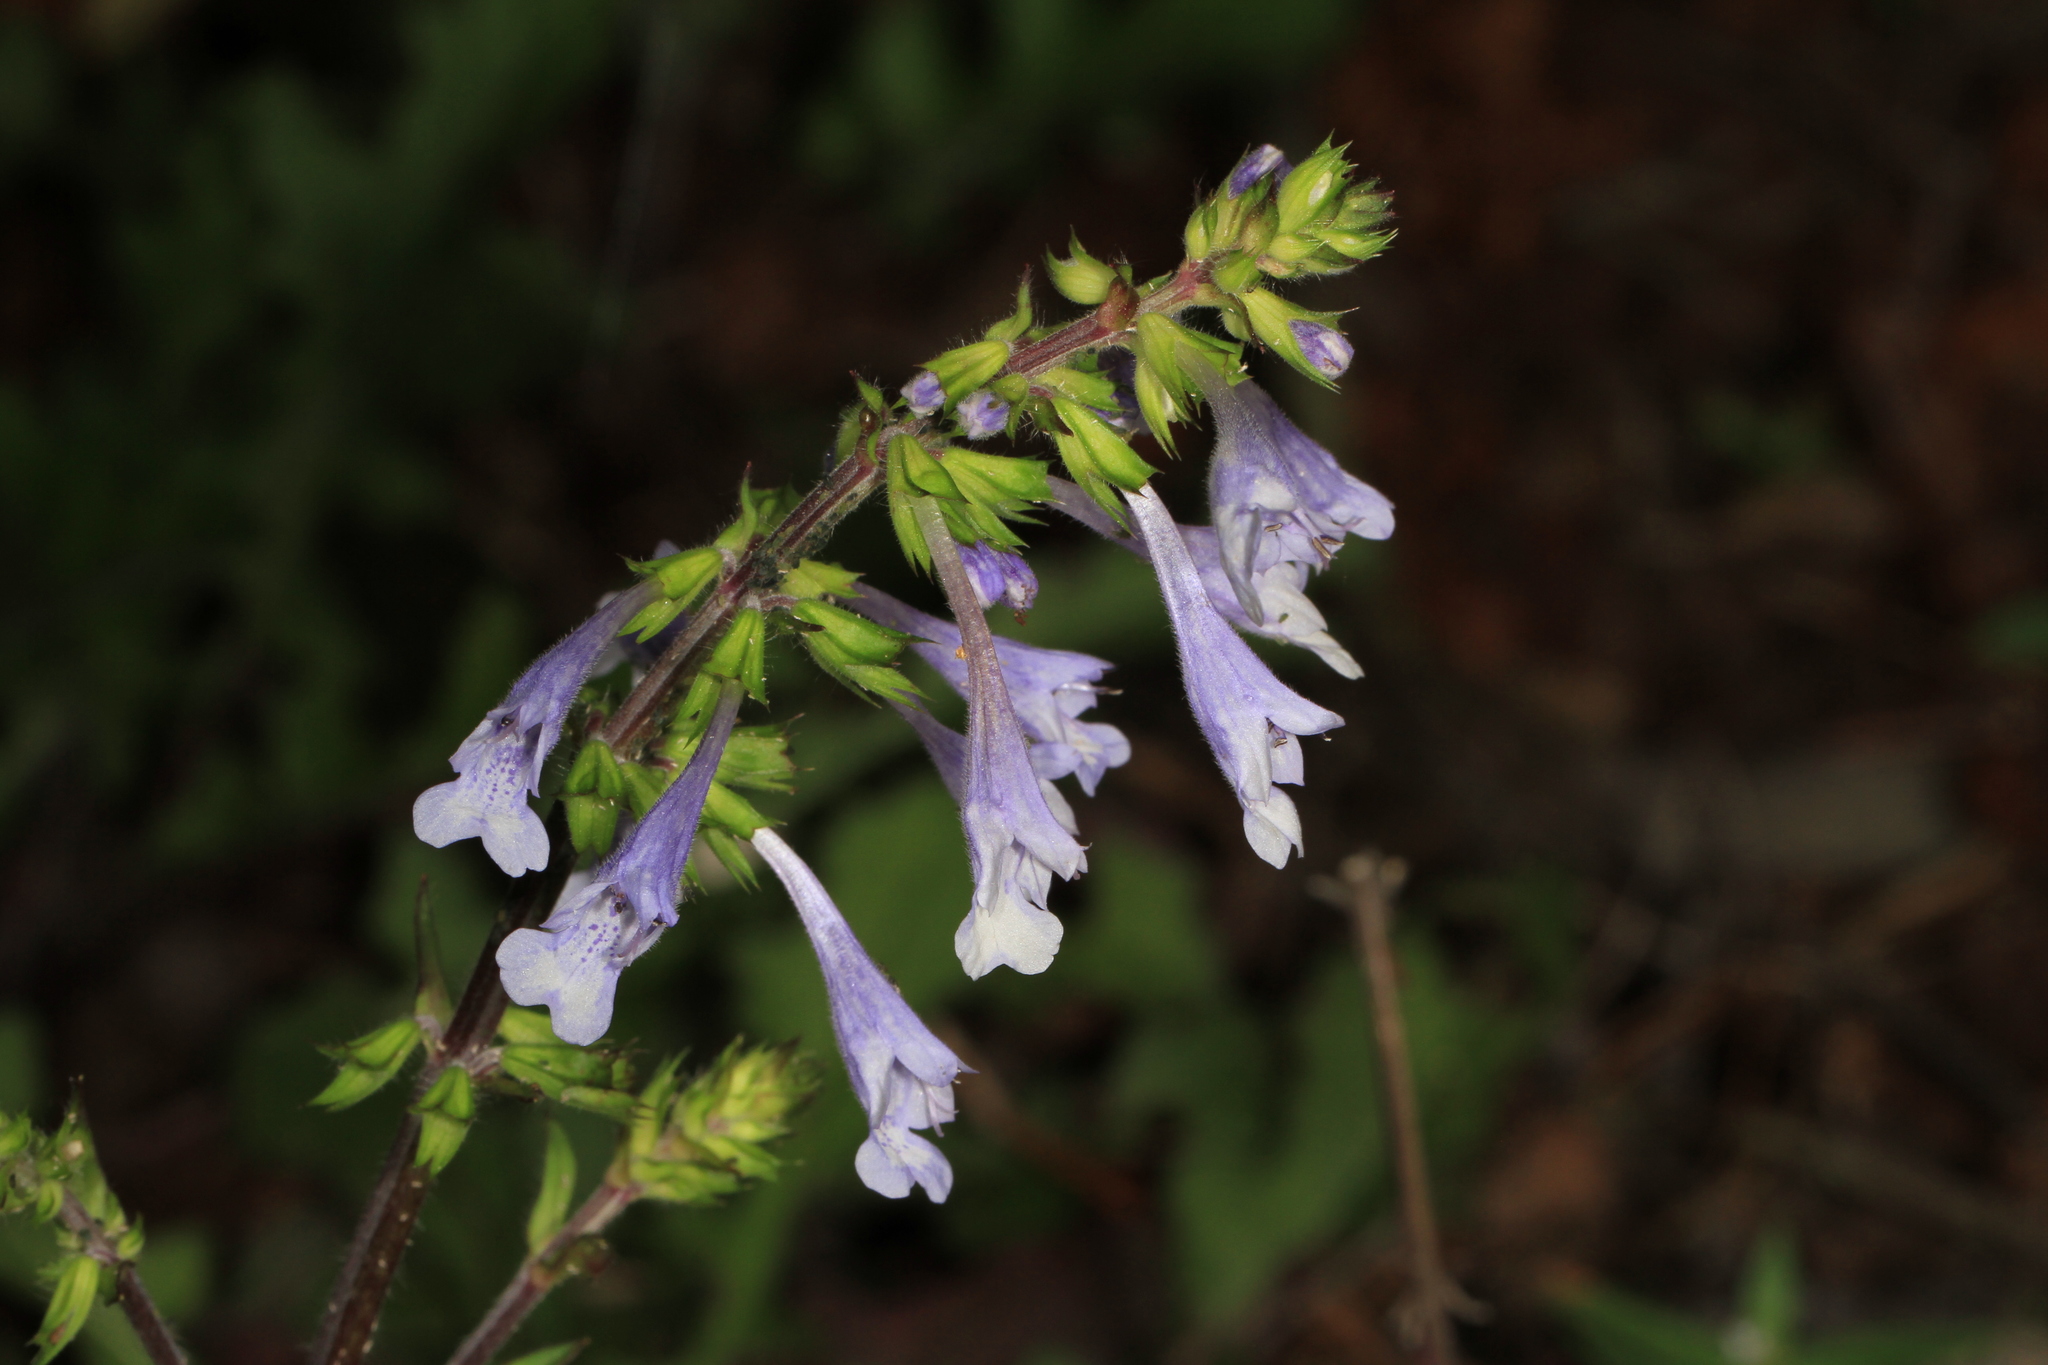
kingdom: Plantae
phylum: Tracheophyta
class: Magnoliopsida
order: Lamiales
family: Lamiaceae
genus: Salvia
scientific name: Salvia lyrata
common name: Cancerweed
